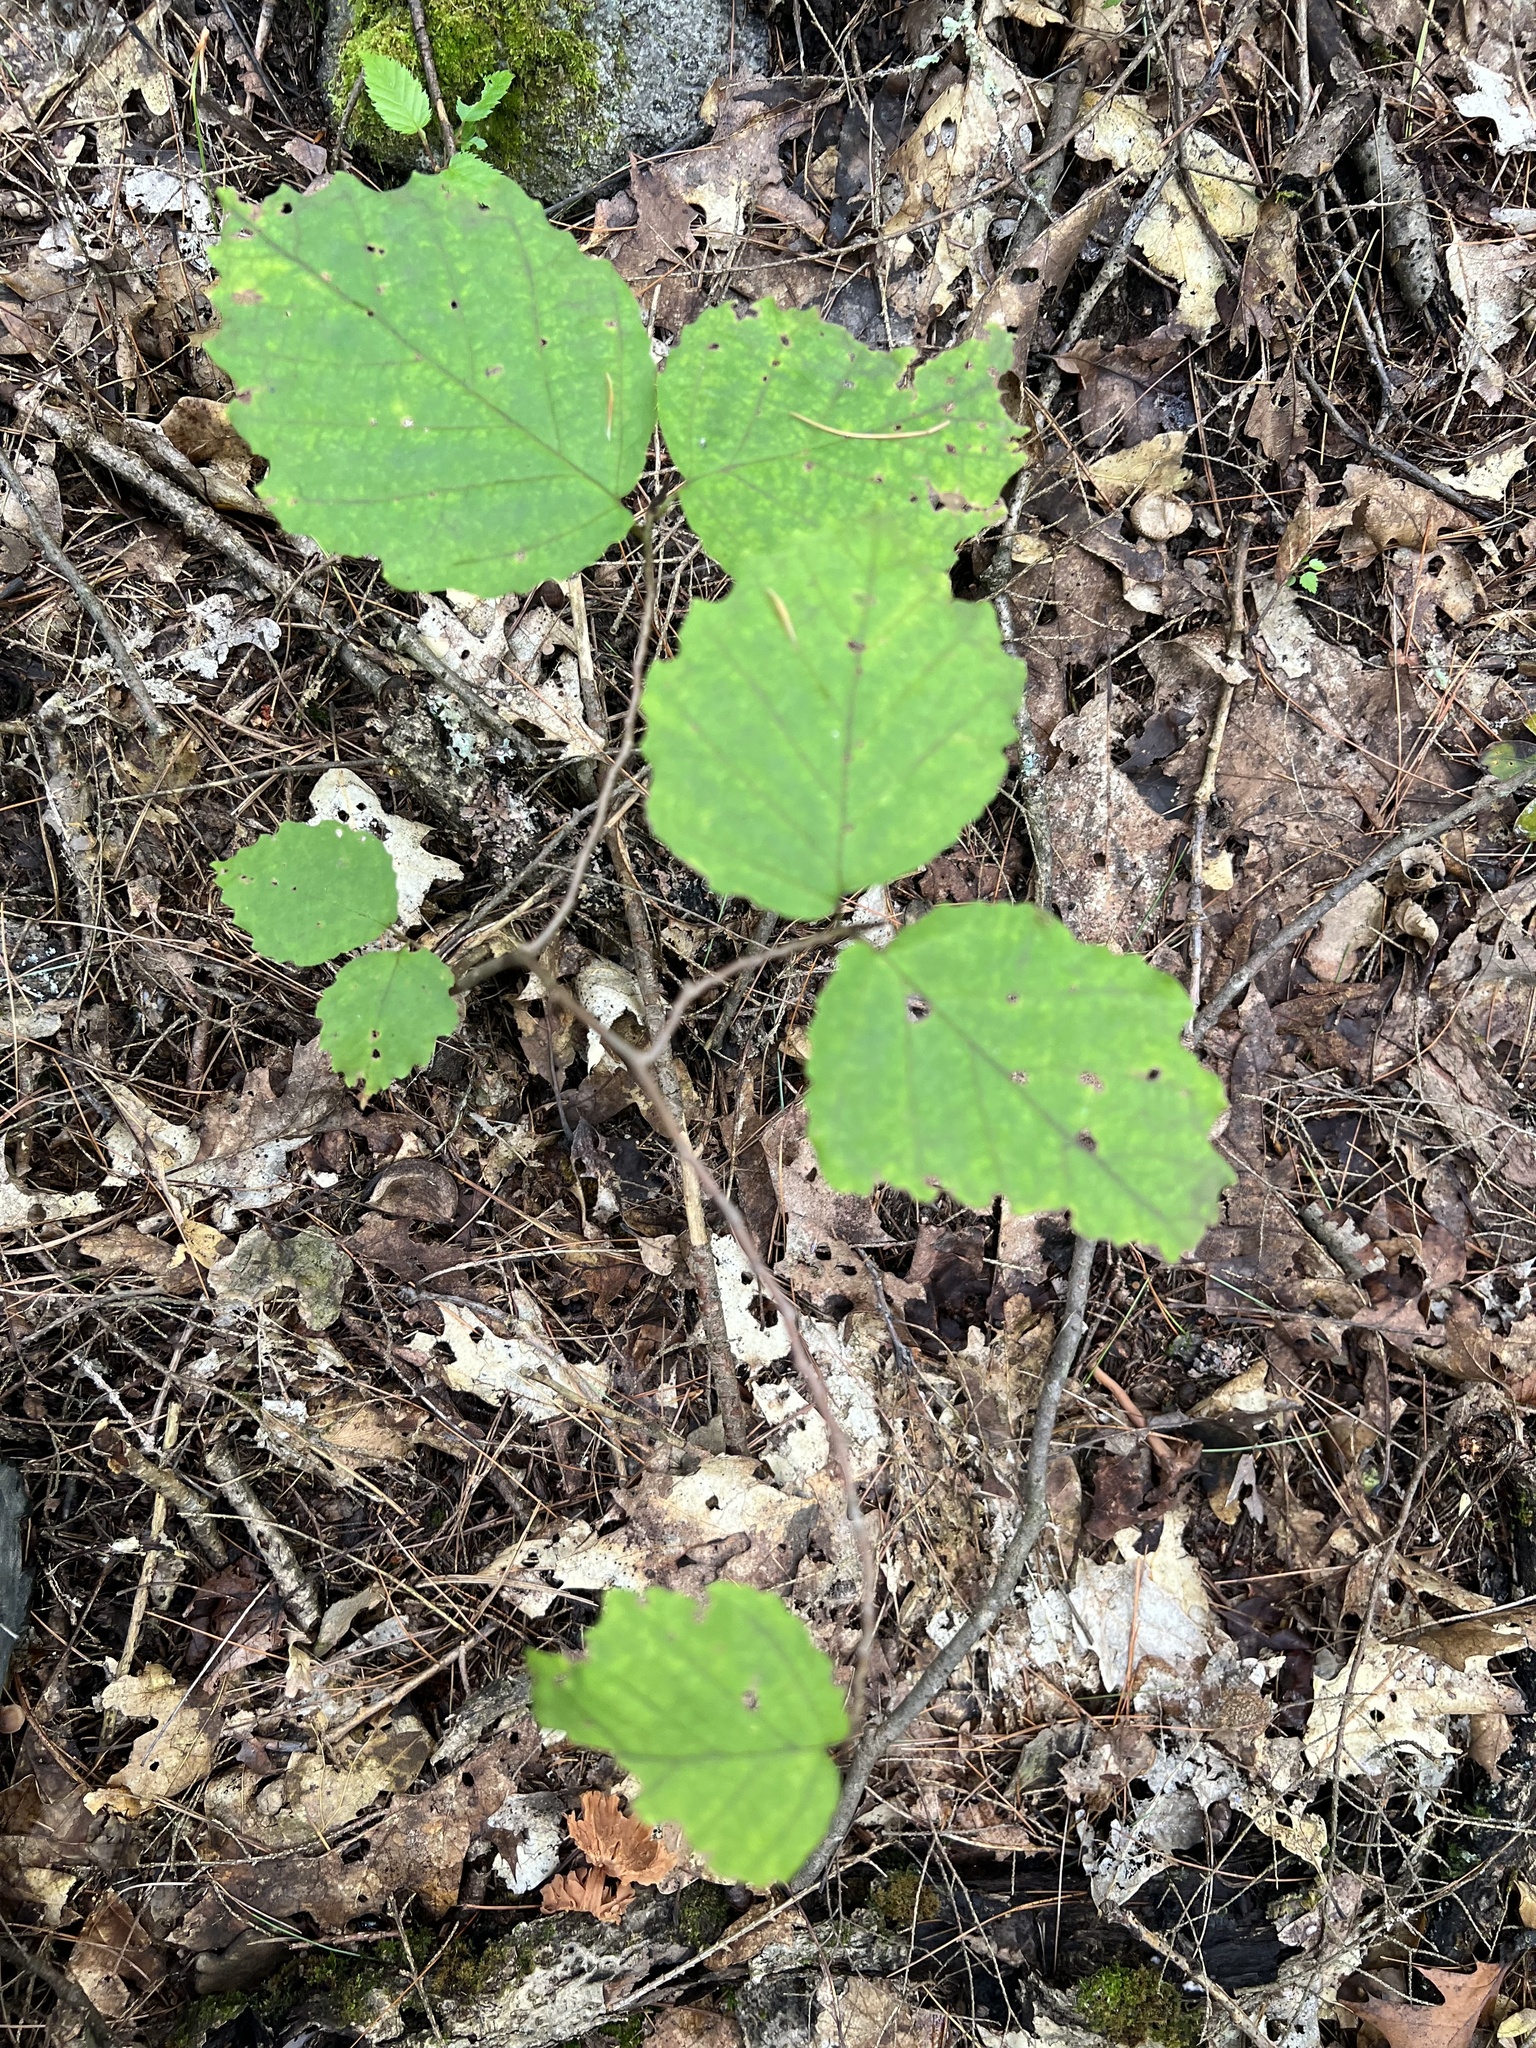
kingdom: Plantae
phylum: Tracheophyta
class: Magnoliopsida
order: Saxifragales
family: Hamamelidaceae
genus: Hamamelis
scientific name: Hamamelis virginiana
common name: Witch-hazel
